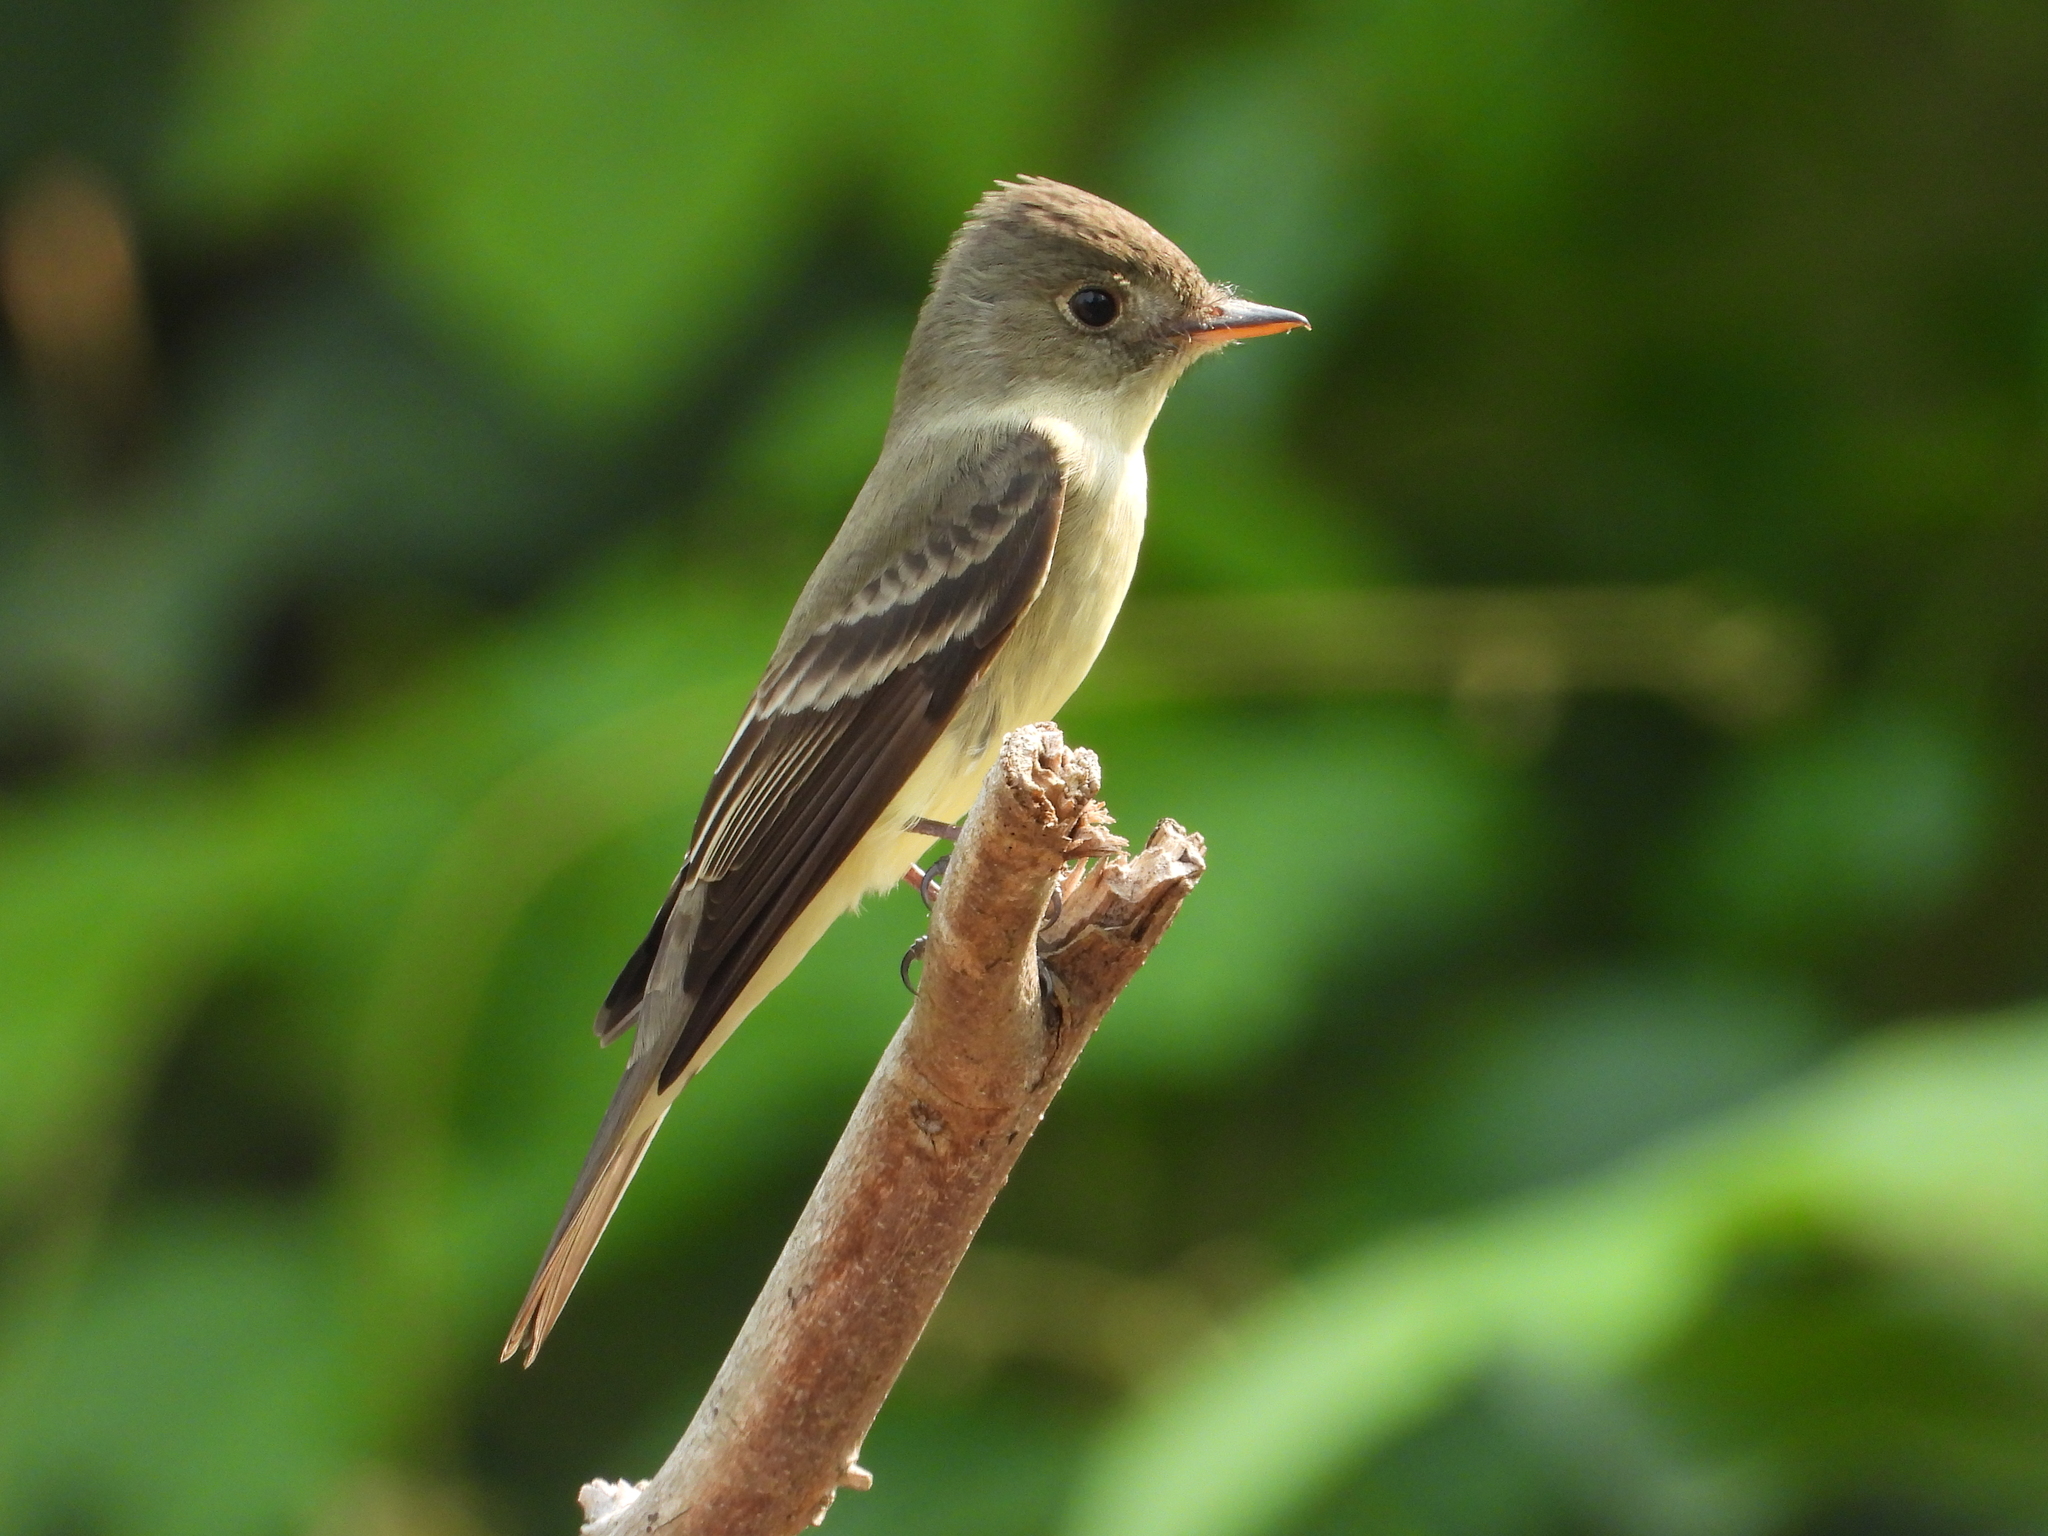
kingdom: Animalia
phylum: Chordata
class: Aves
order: Passeriformes
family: Tyrannidae
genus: Contopus
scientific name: Contopus virens
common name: Eastern wood-pewee
